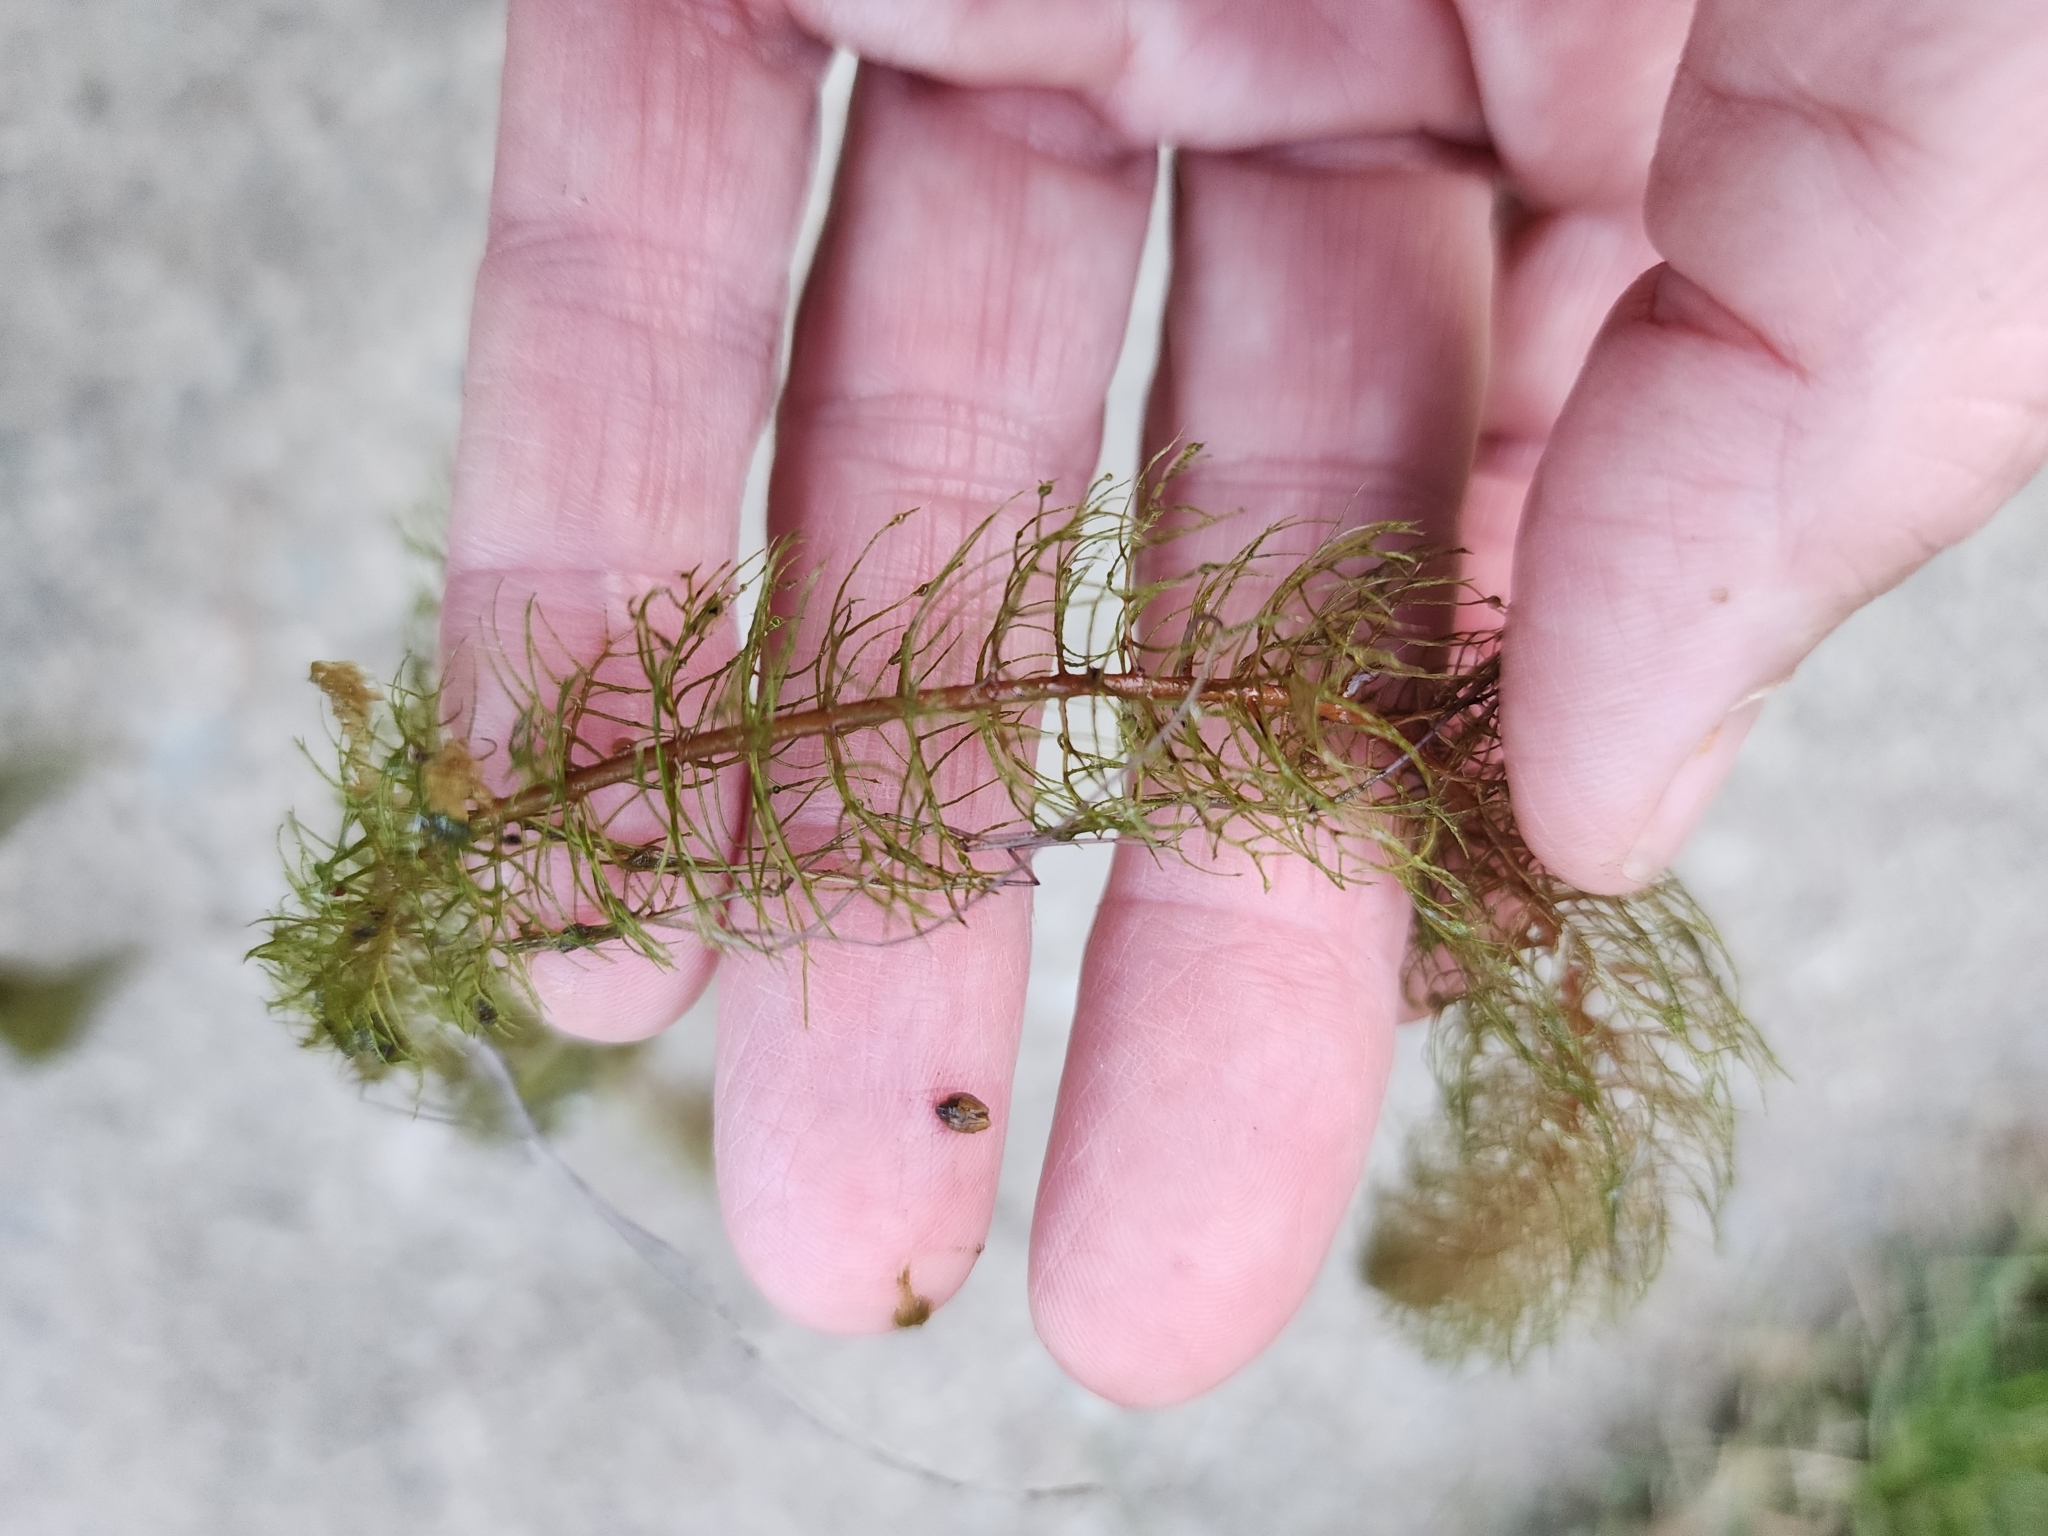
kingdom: Plantae
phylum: Tracheophyta
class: Magnoliopsida
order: Saxifragales
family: Haloragaceae
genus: Myriophyllum
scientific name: Myriophyllum alterniflorum
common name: Alternate water-milfoil
